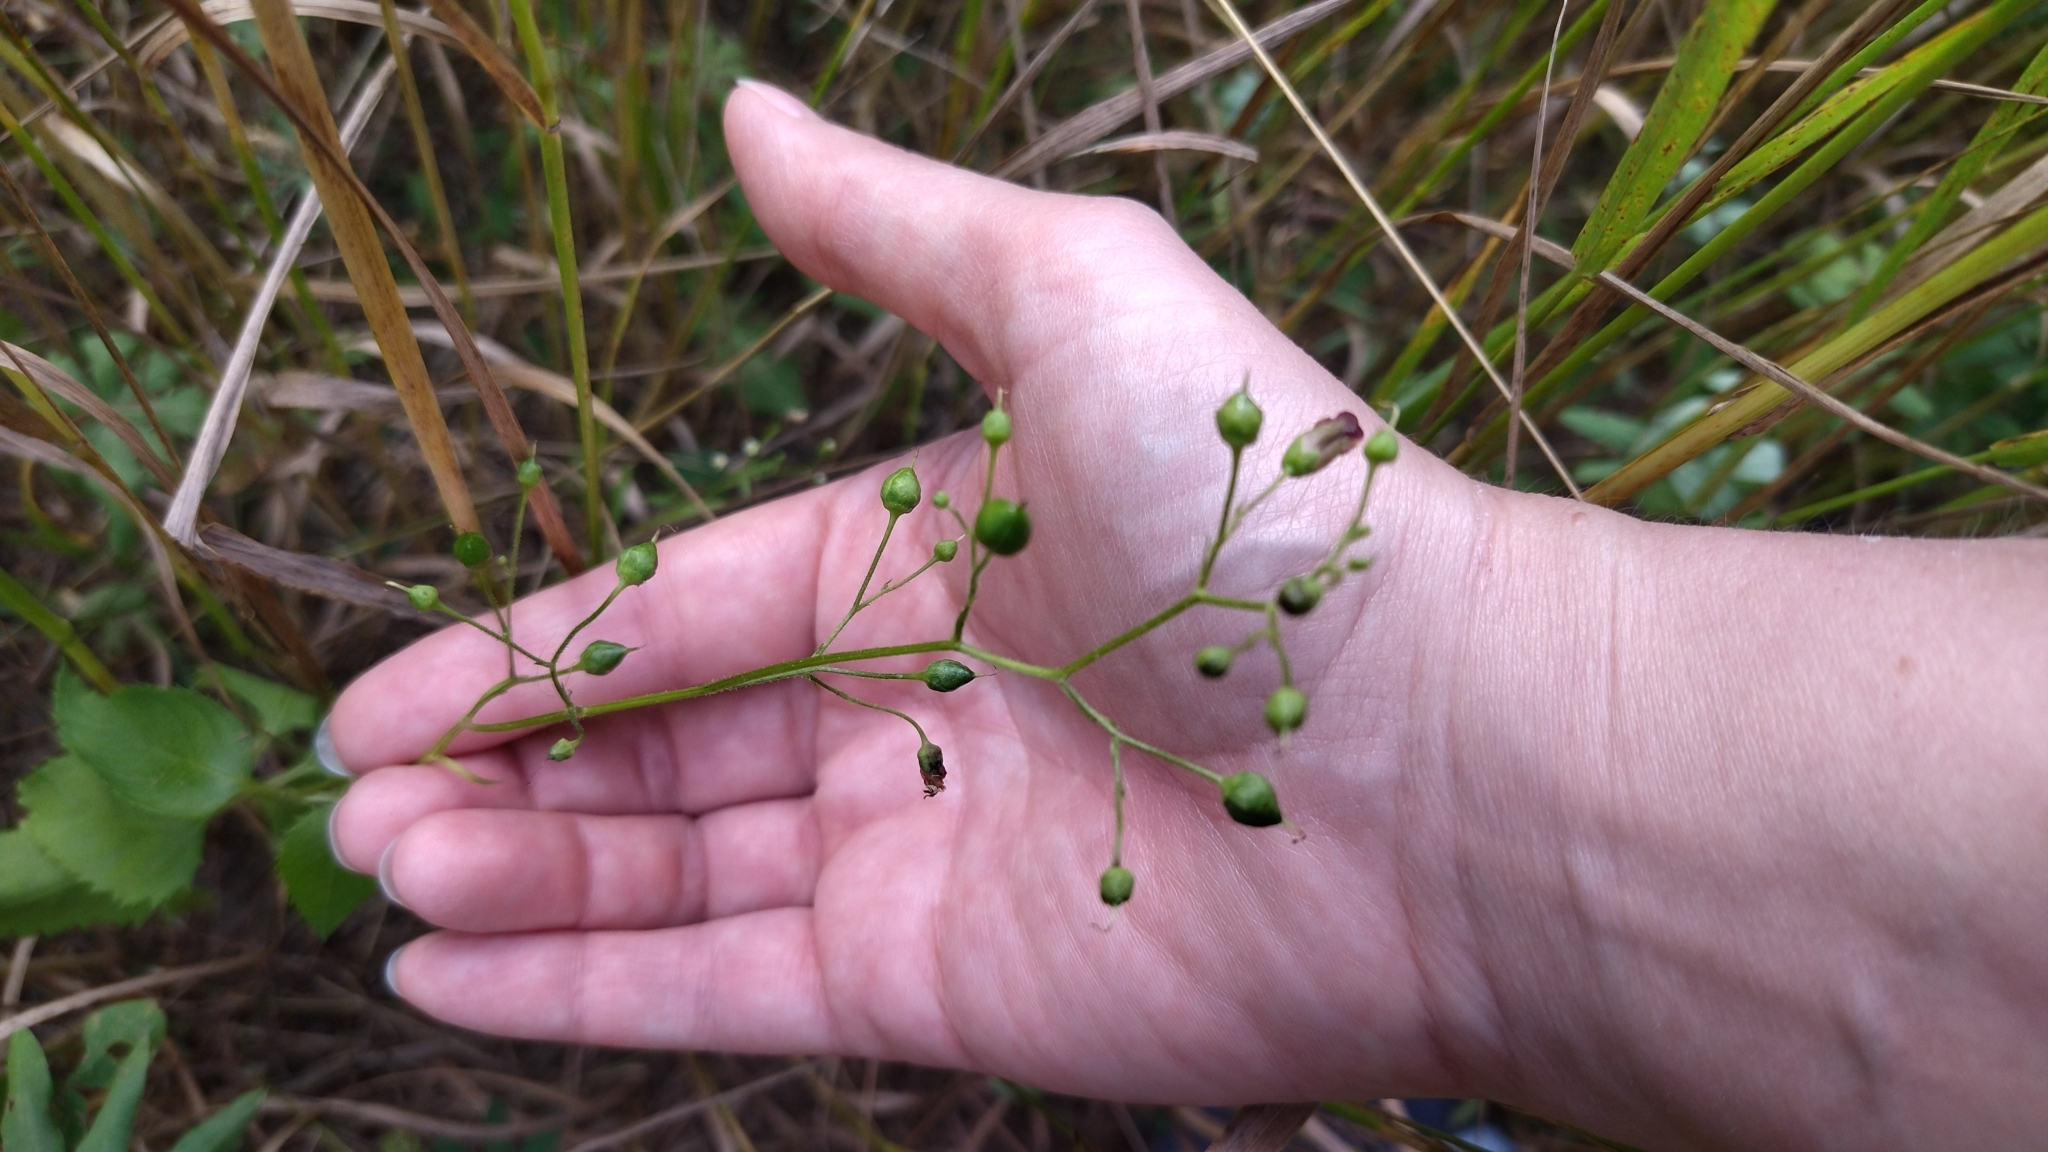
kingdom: Plantae
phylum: Tracheophyta
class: Magnoliopsida
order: Lamiales
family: Scrophulariaceae
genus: Scrophularia
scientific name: Scrophularia nodosa
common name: Common figwort
